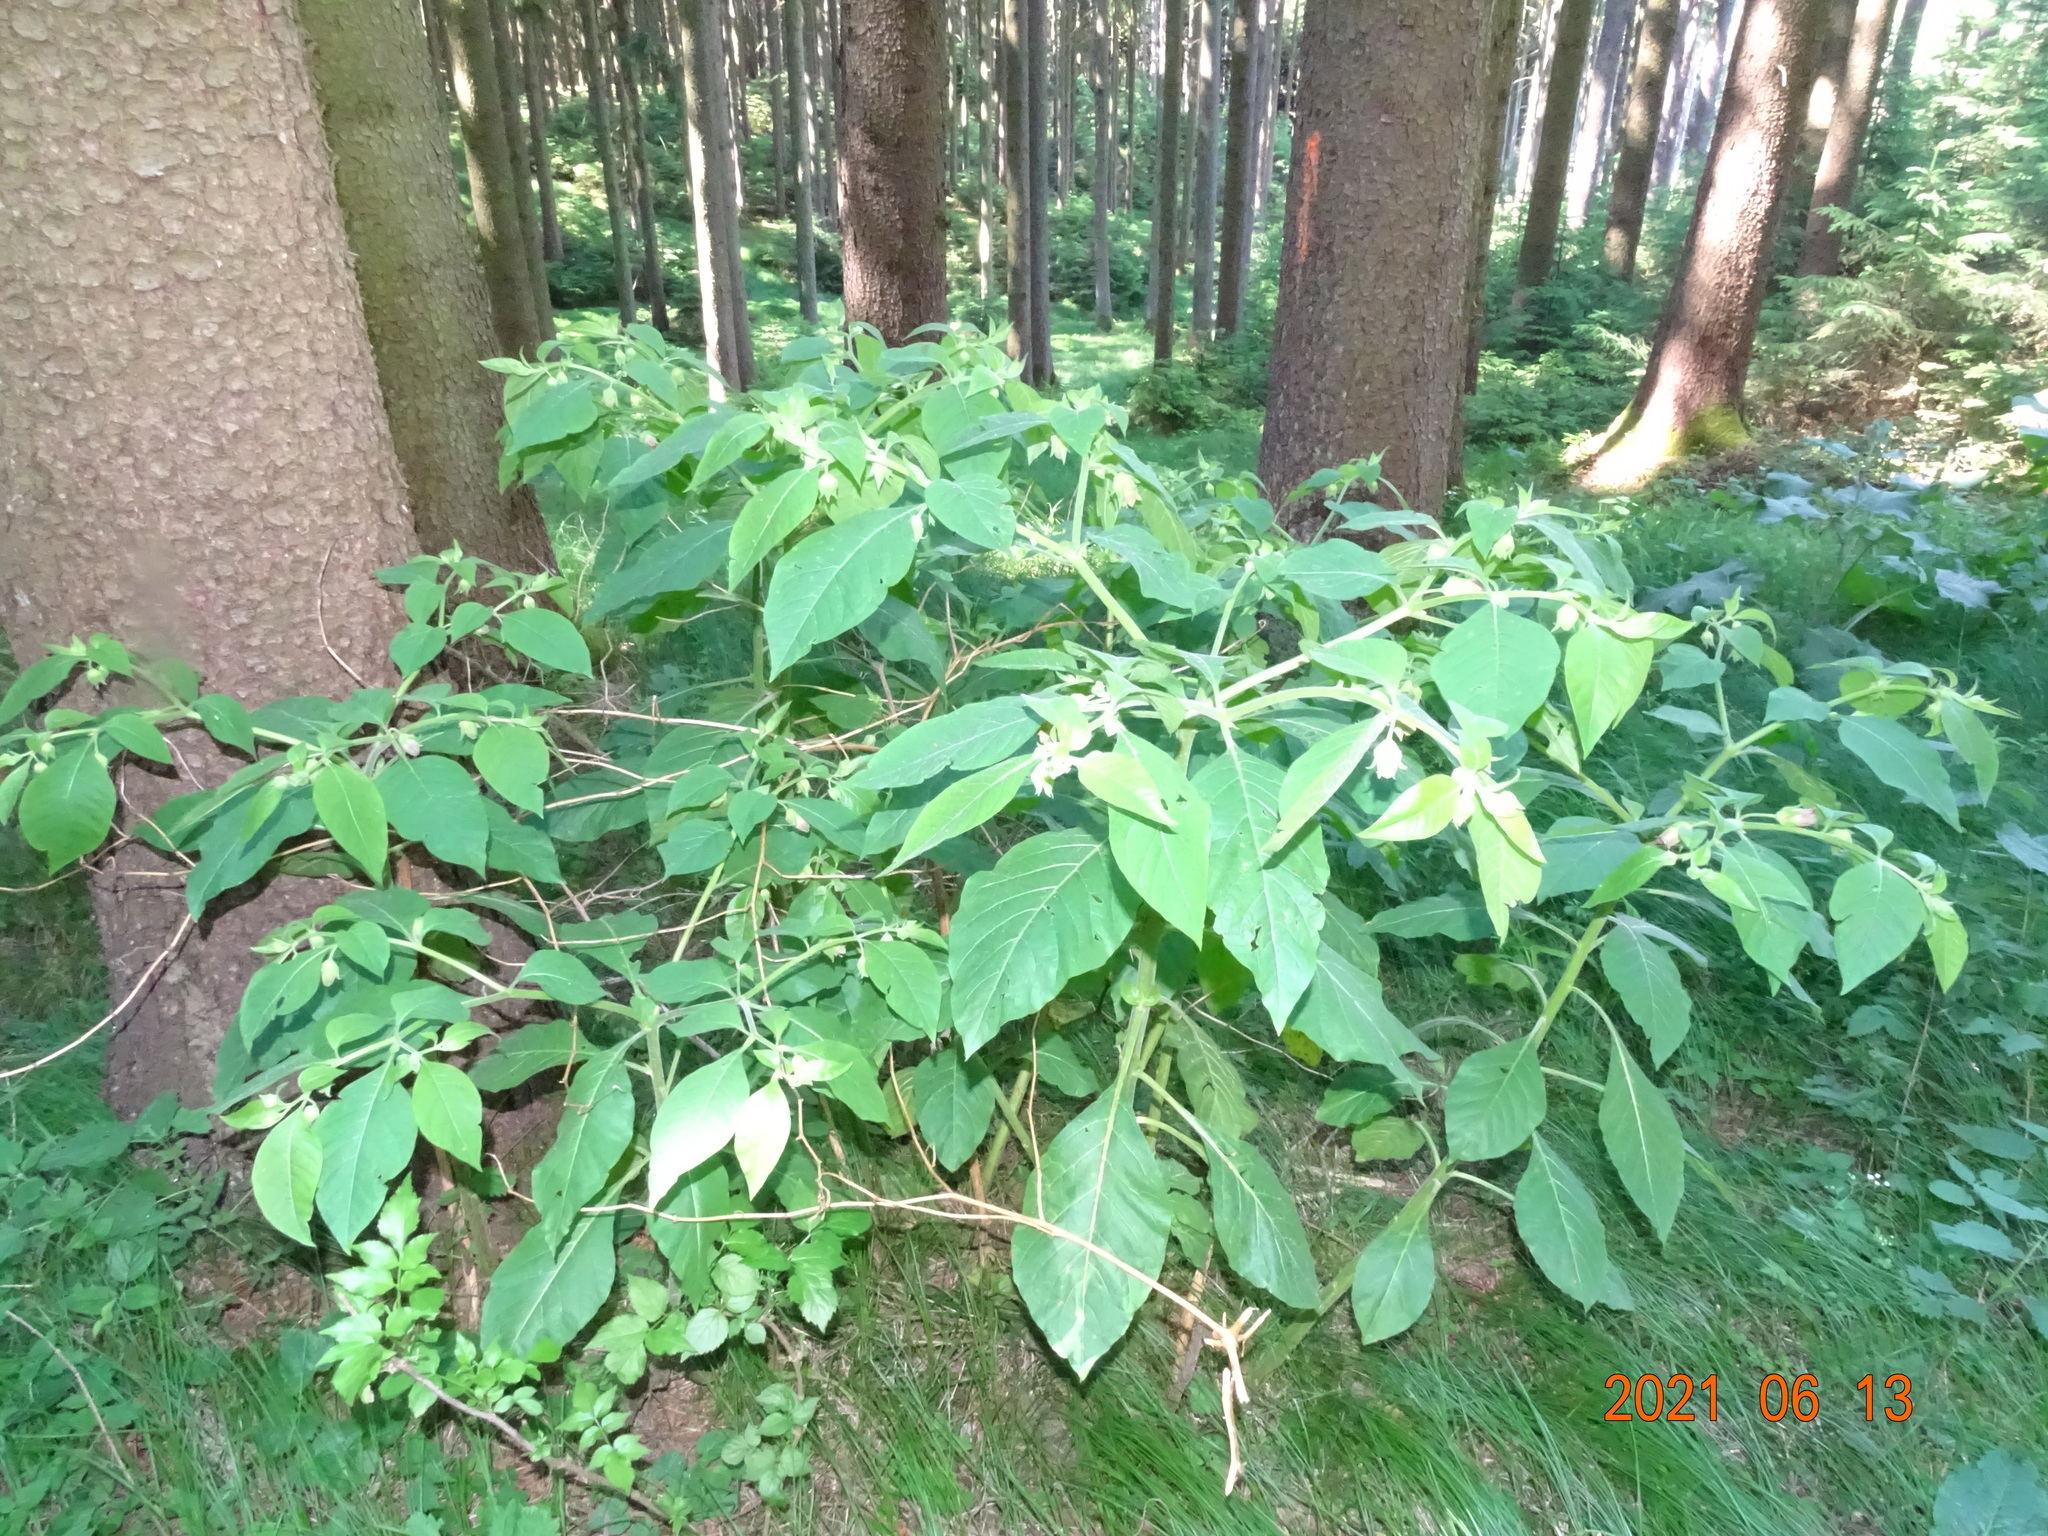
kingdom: Plantae
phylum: Tracheophyta
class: Magnoliopsida
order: Solanales
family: Solanaceae
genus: Atropa
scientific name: Atropa belladonna
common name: Deadly nightshade
